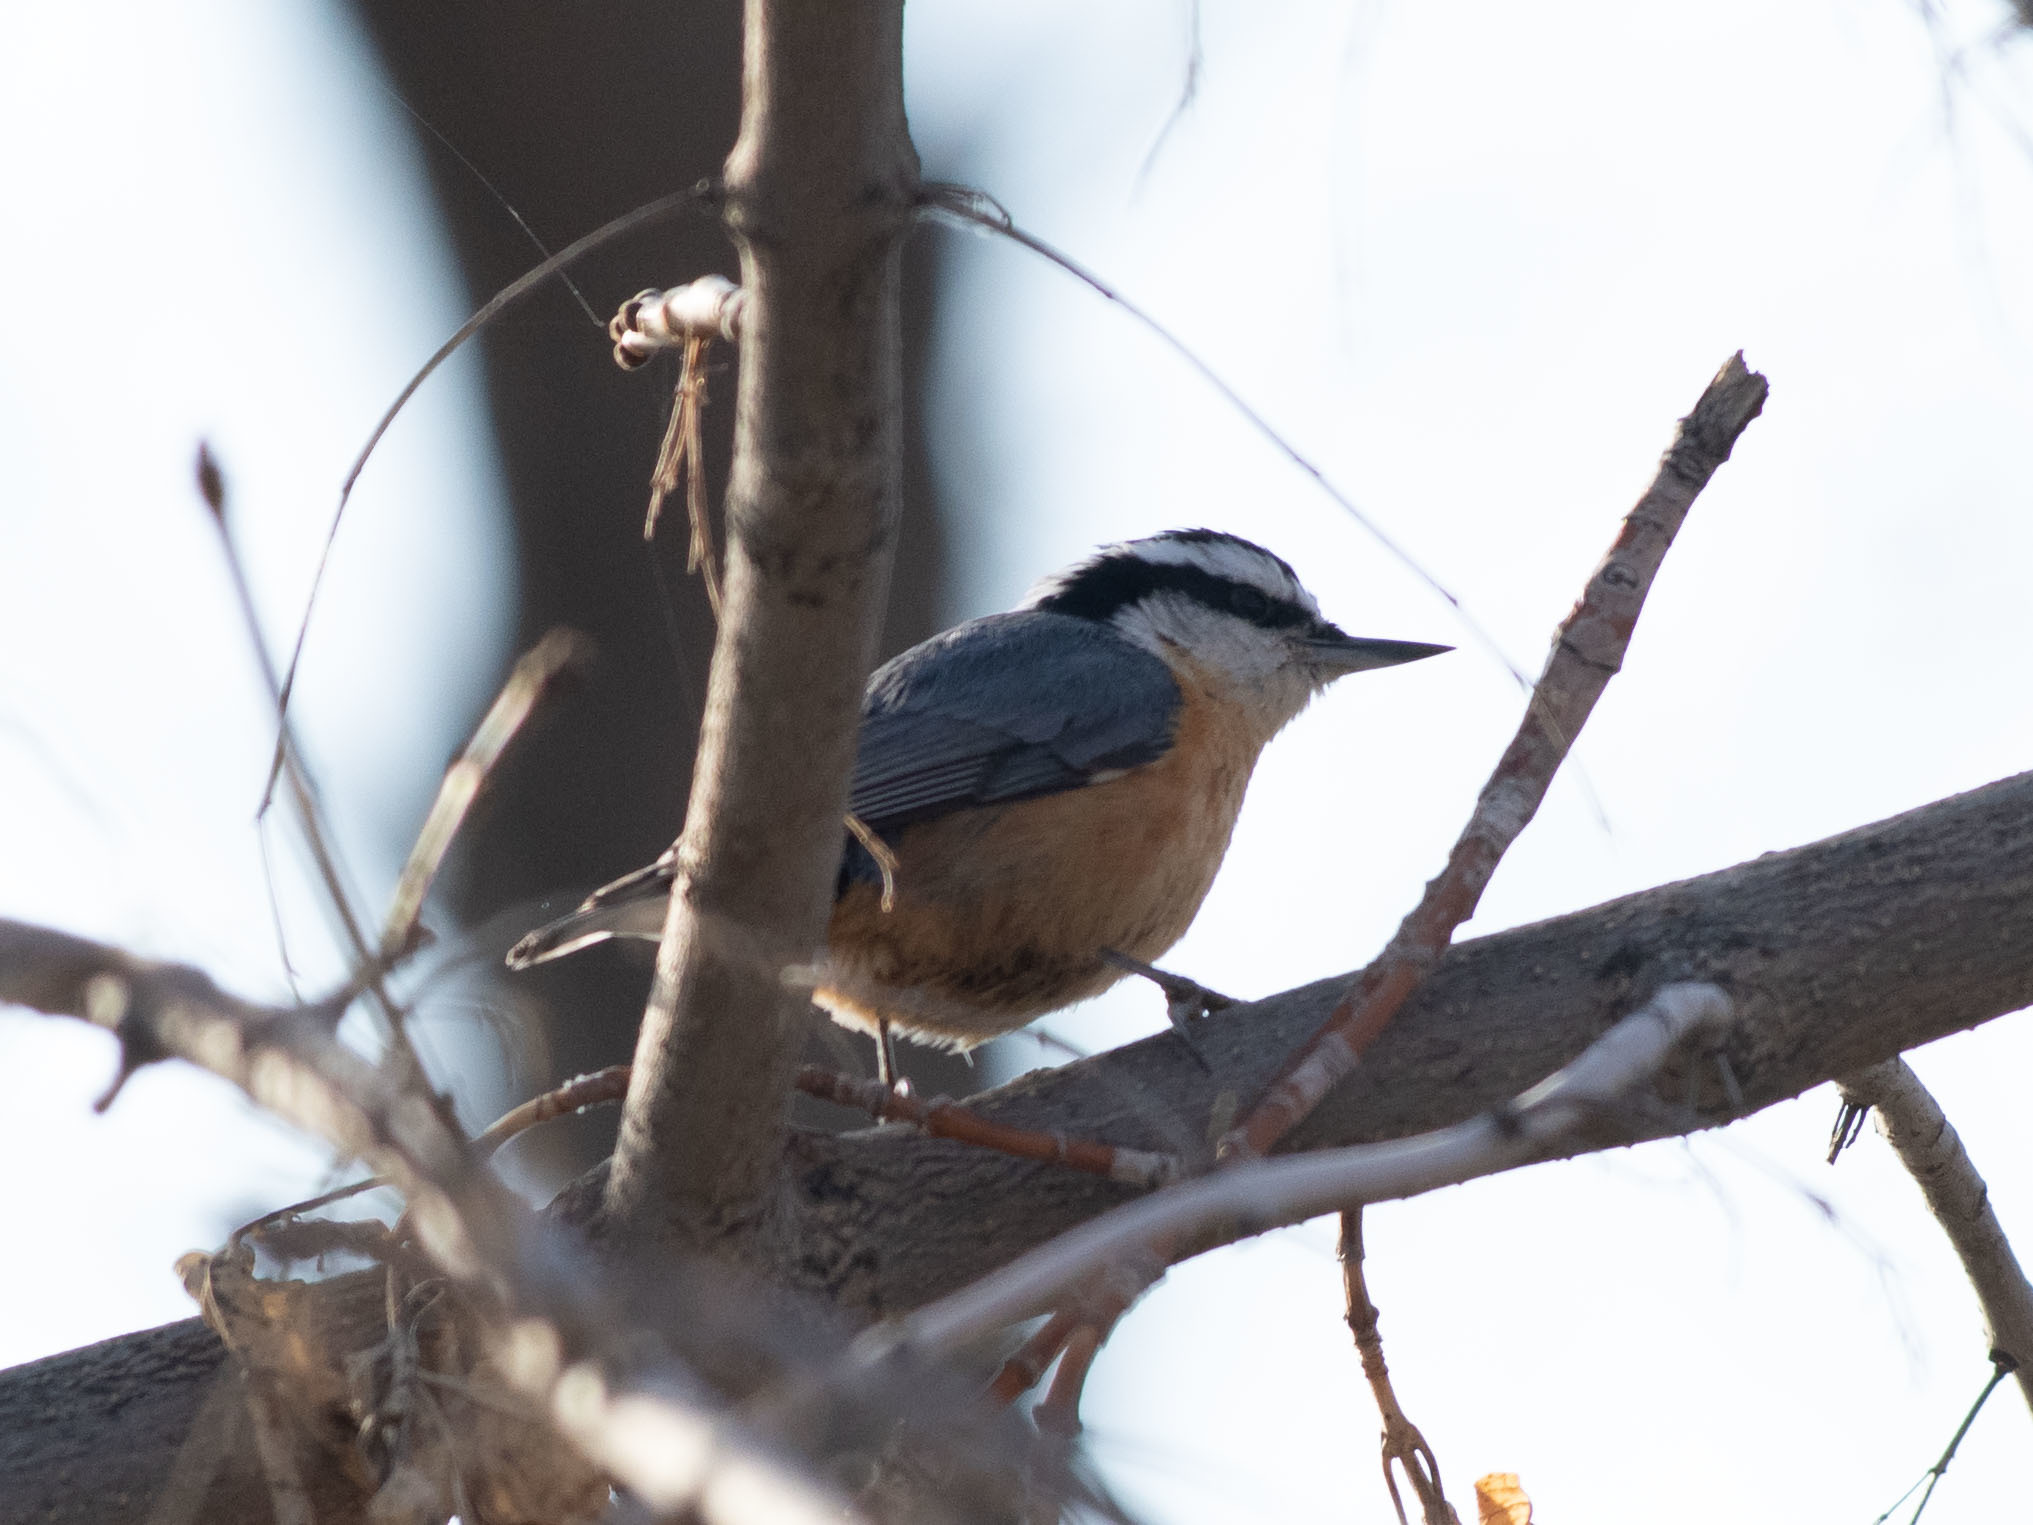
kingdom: Animalia
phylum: Chordata
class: Aves
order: Passeriformes
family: Sittidae
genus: Sitta
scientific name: Sitta canadensis
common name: Red-breasted nuthatch
